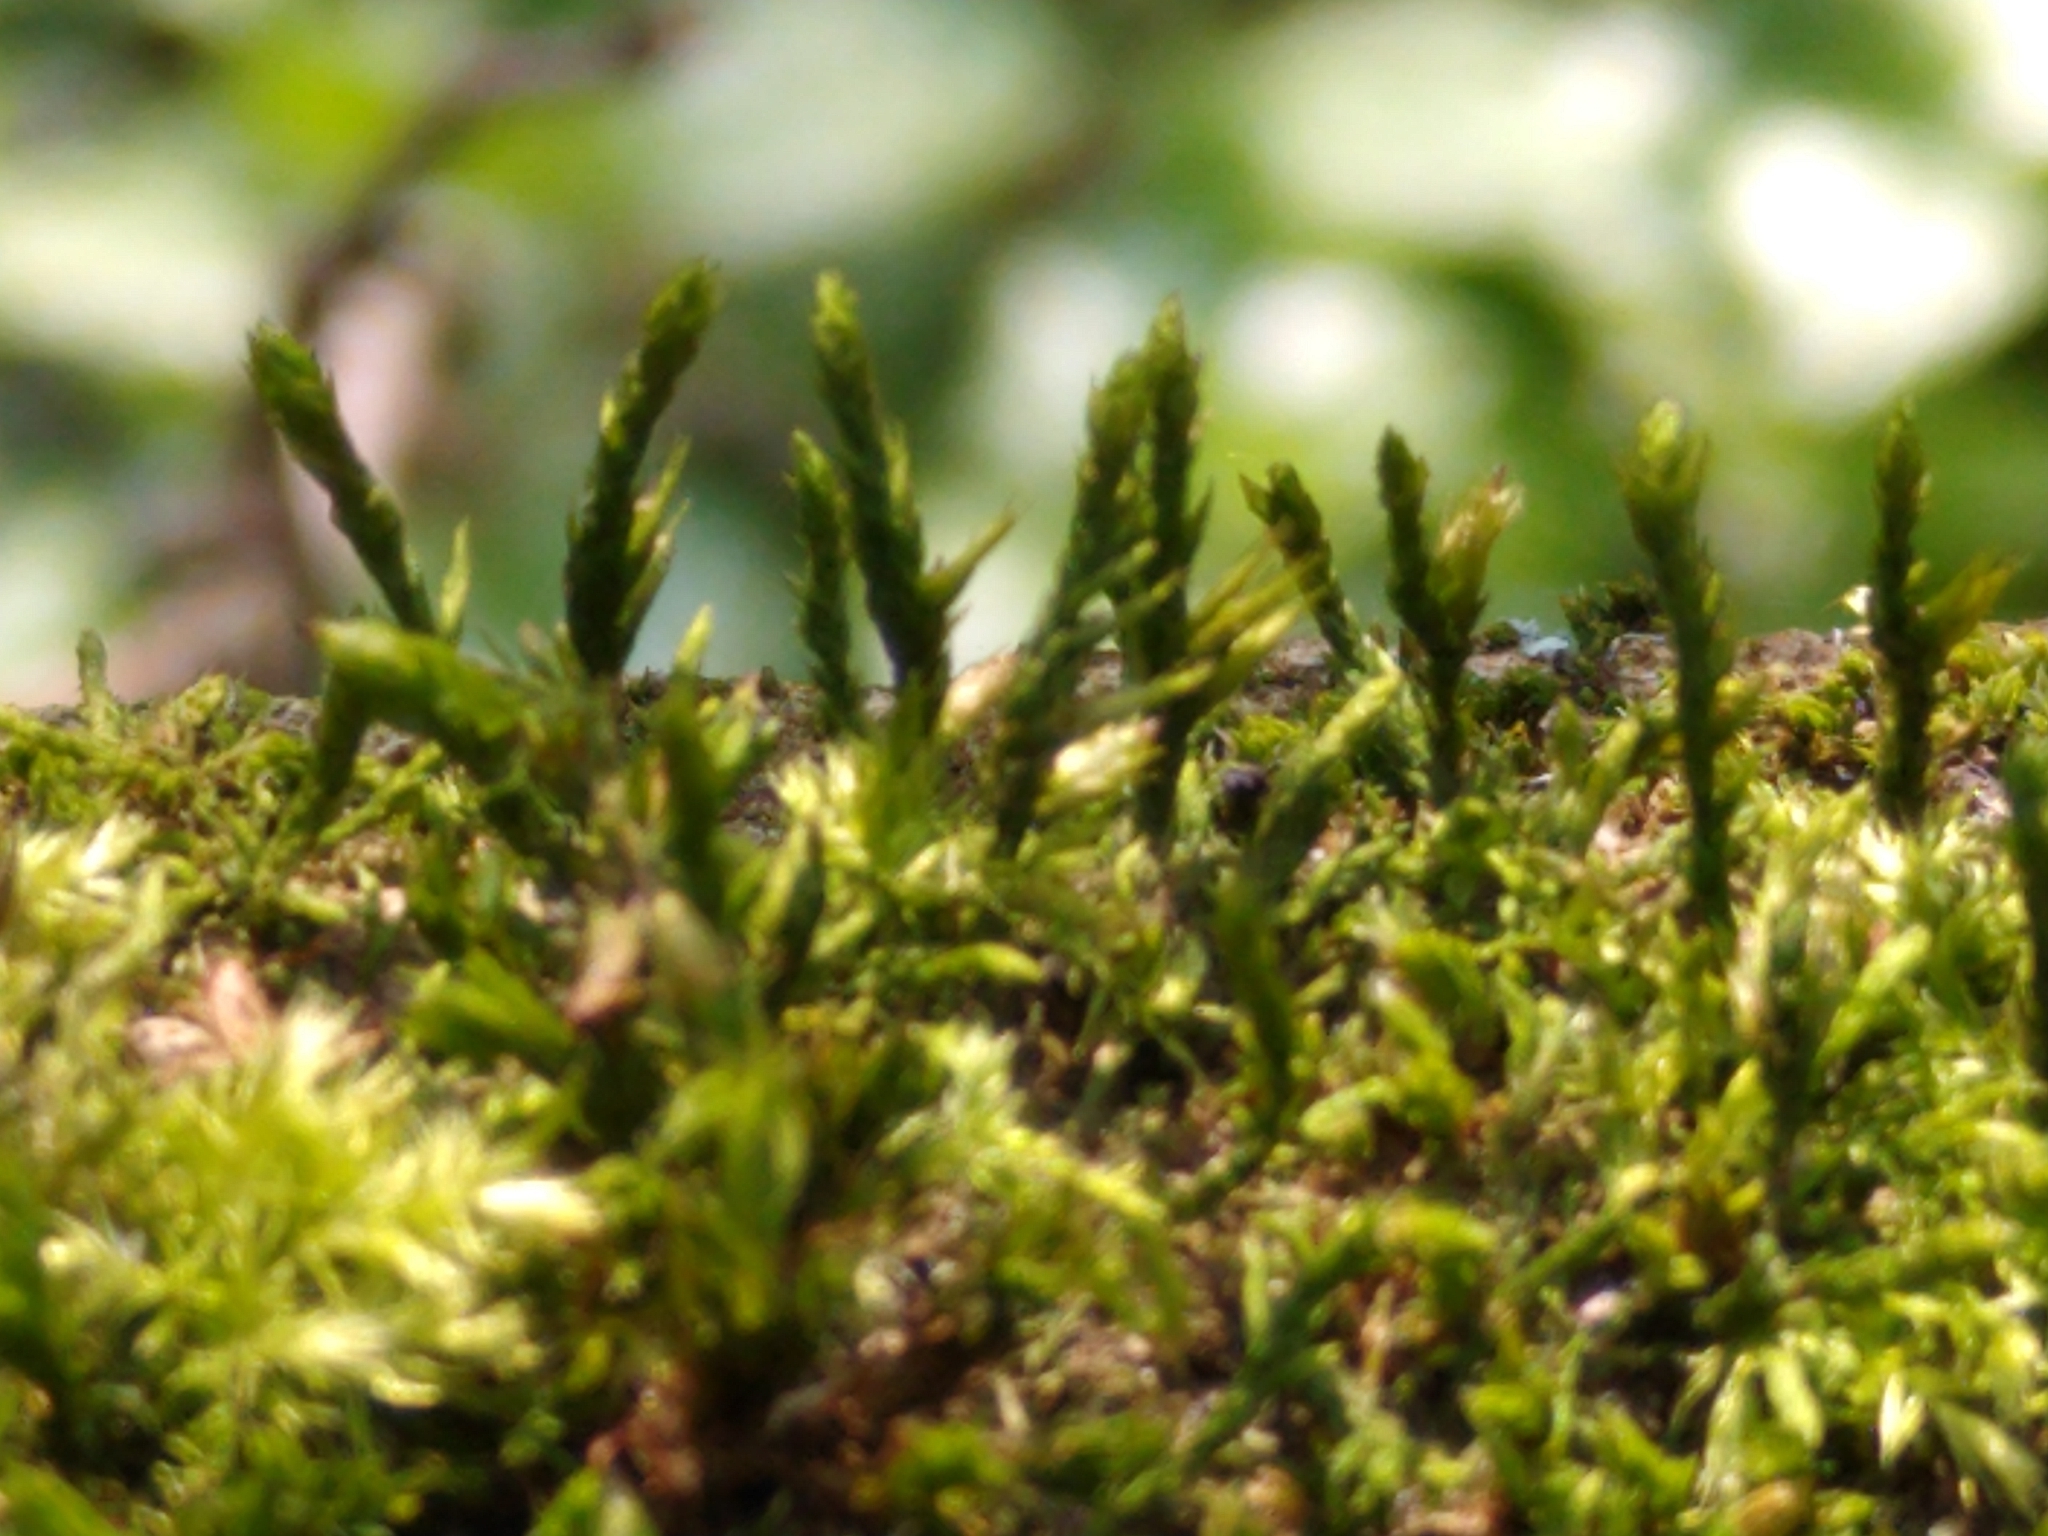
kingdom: Plantae
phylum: Bryophyta
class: Bryopsida
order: Hypnales
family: Cryphaeaceae
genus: Cryphaea
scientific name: Cryphaea heteromalla
